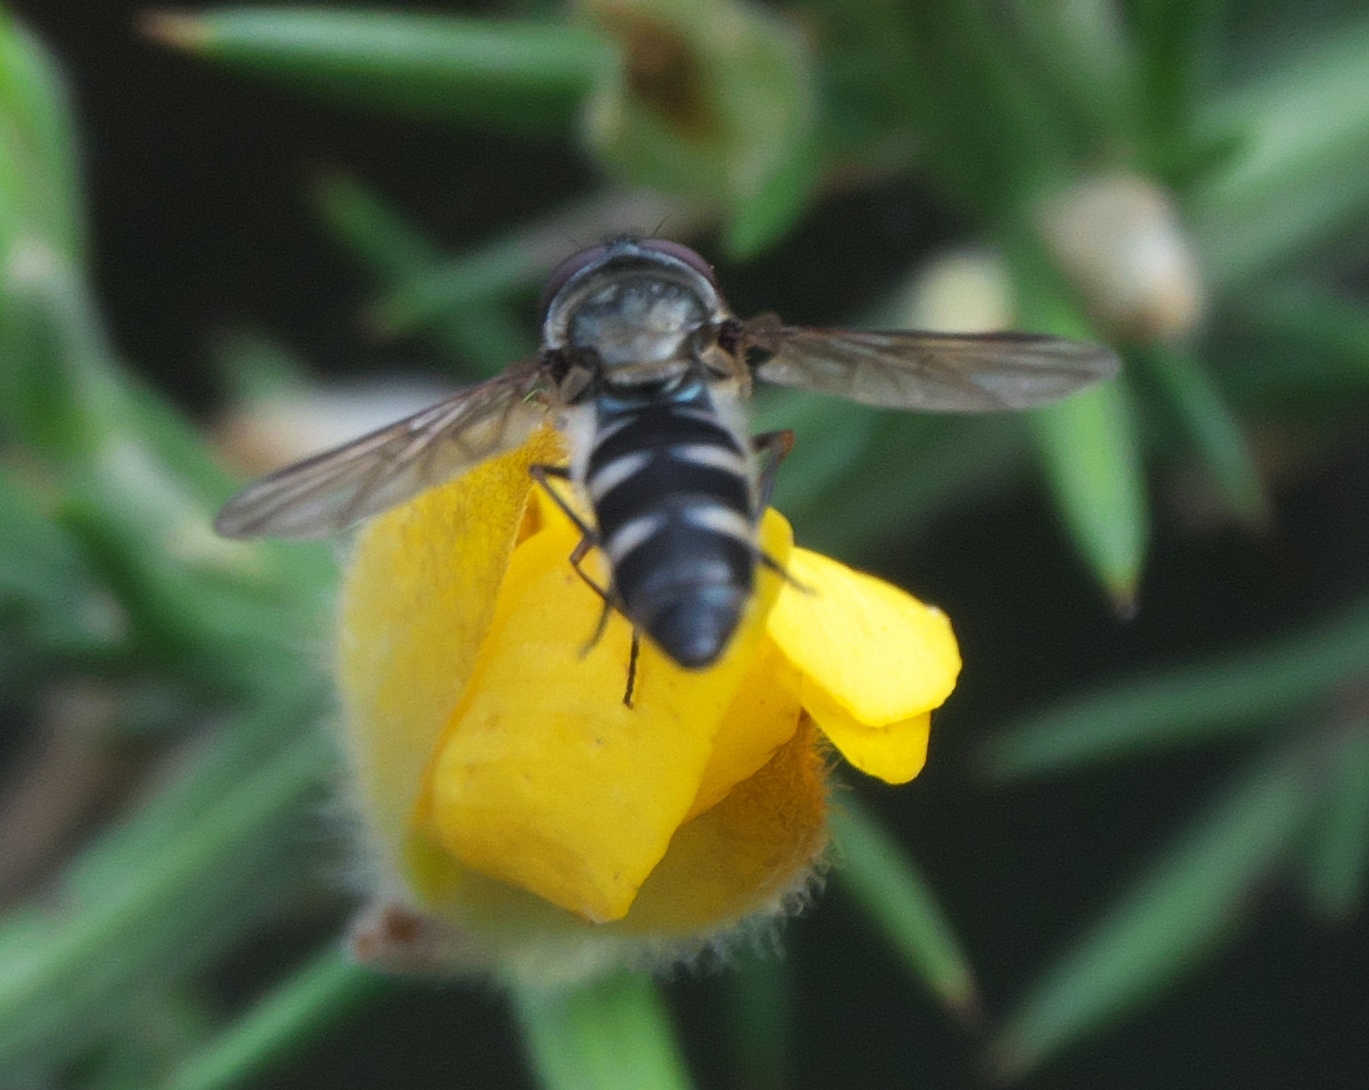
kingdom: Animalia
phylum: Arthropoda
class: Insecta
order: Diptera
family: Syrphidae
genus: Melangyna
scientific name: Melangyna novaezelandiae
